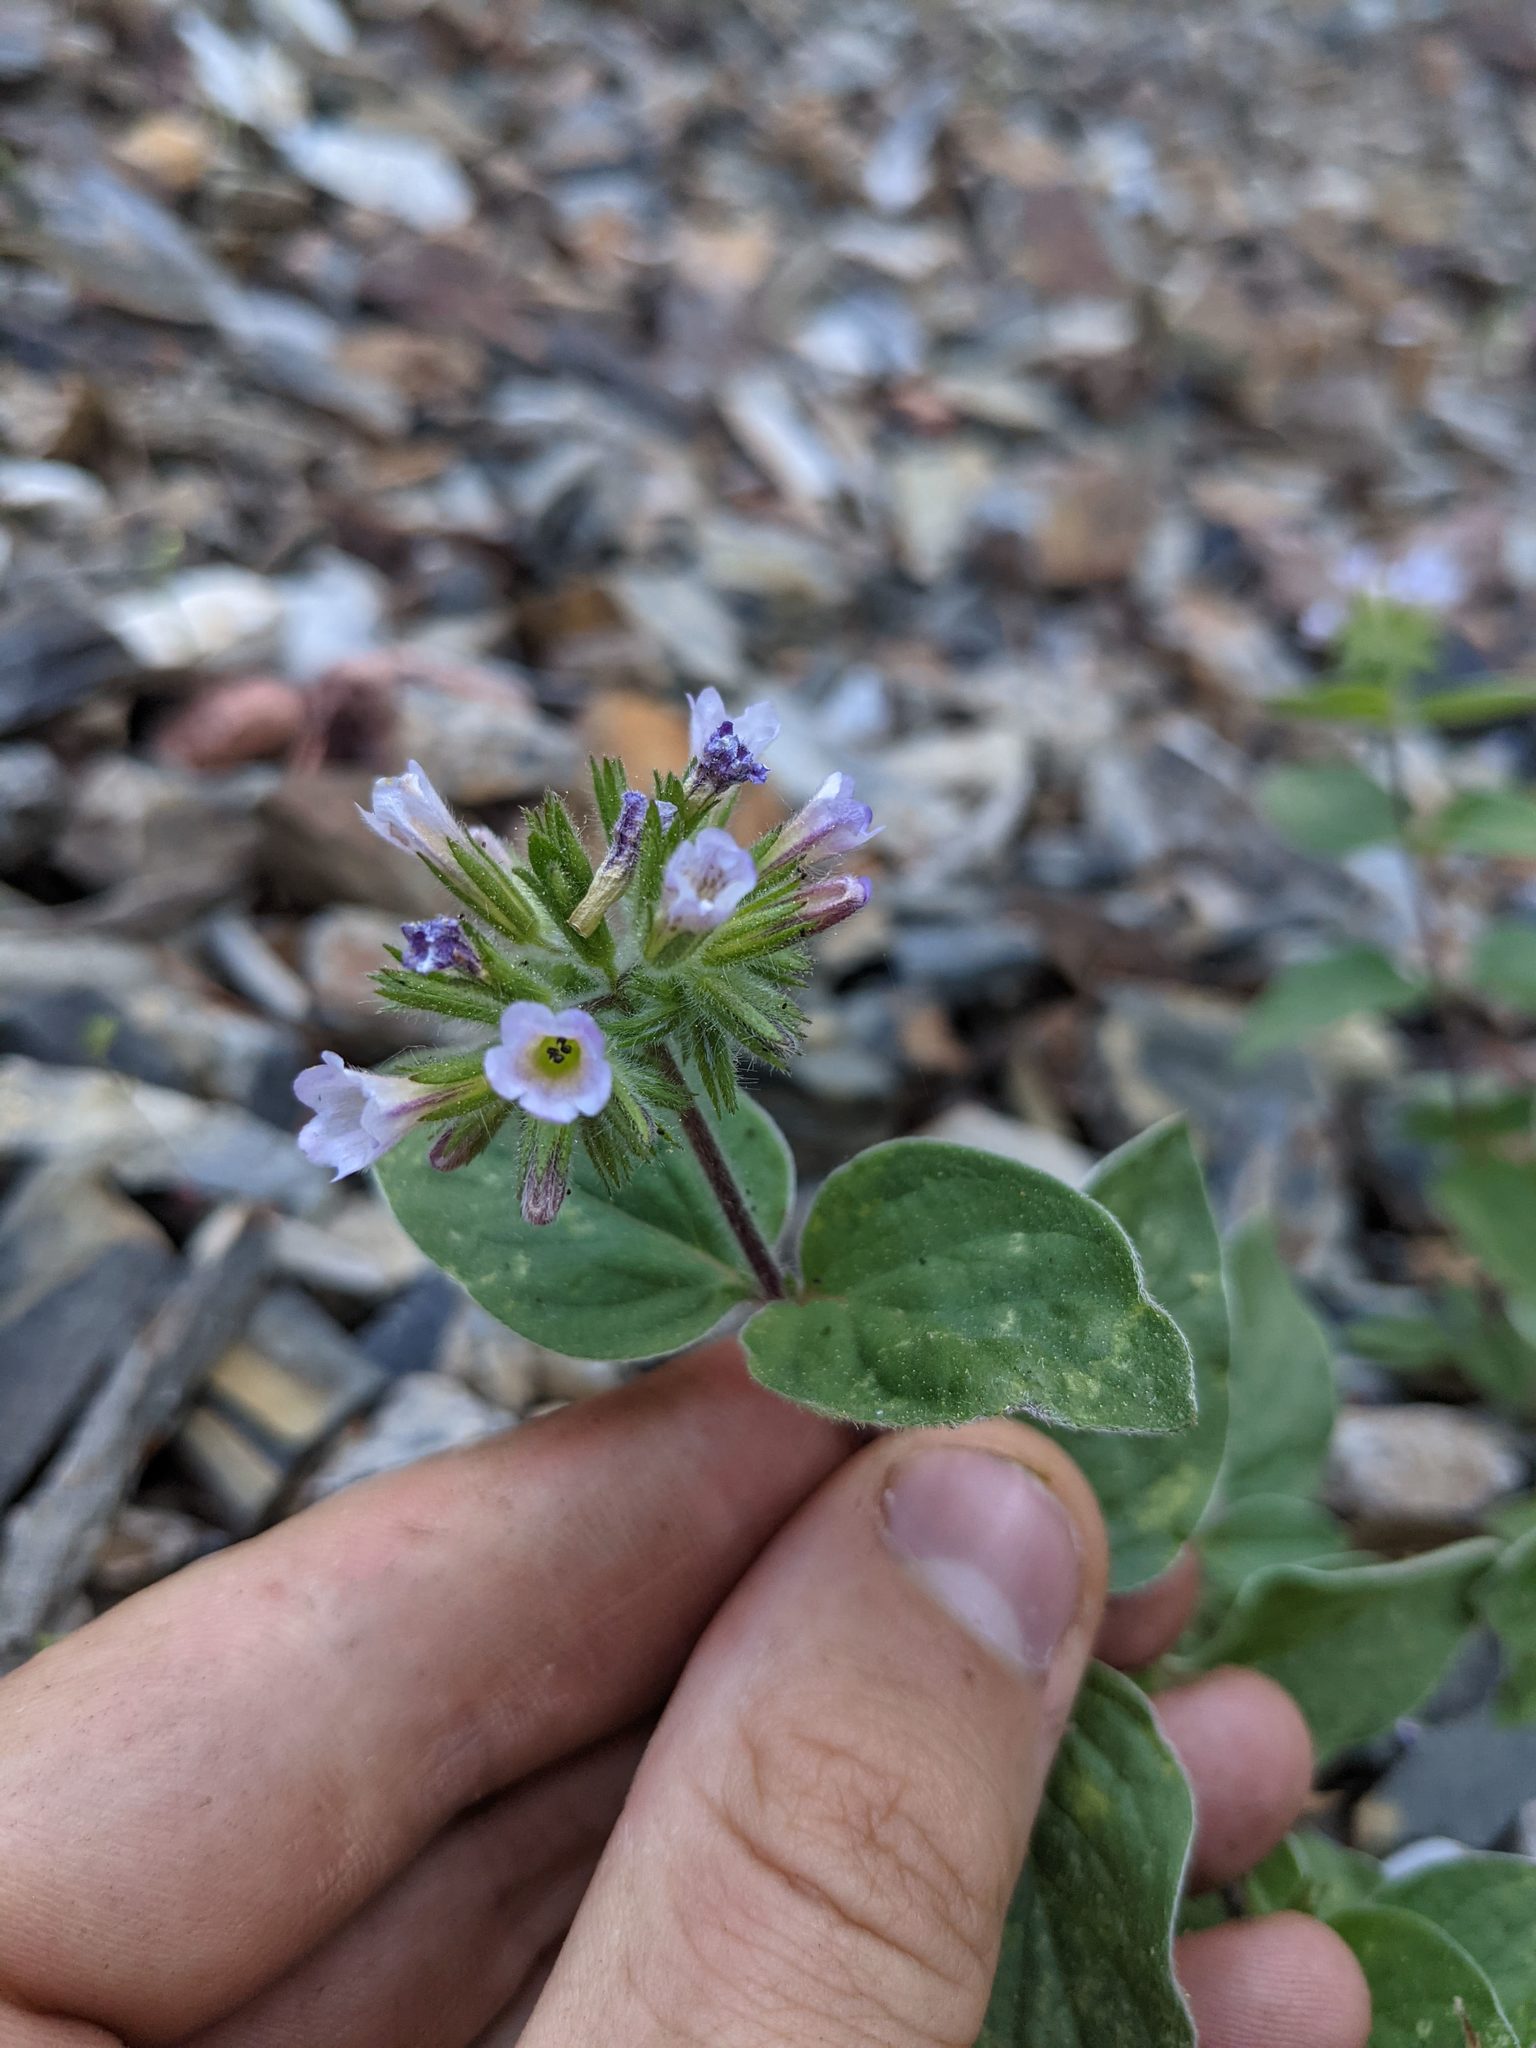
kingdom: Plantae
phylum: Tracheophyta
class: Magnoliopsida
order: Boraginales
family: Hydrophyllaceae
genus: Draperia
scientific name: Draperia systyla
